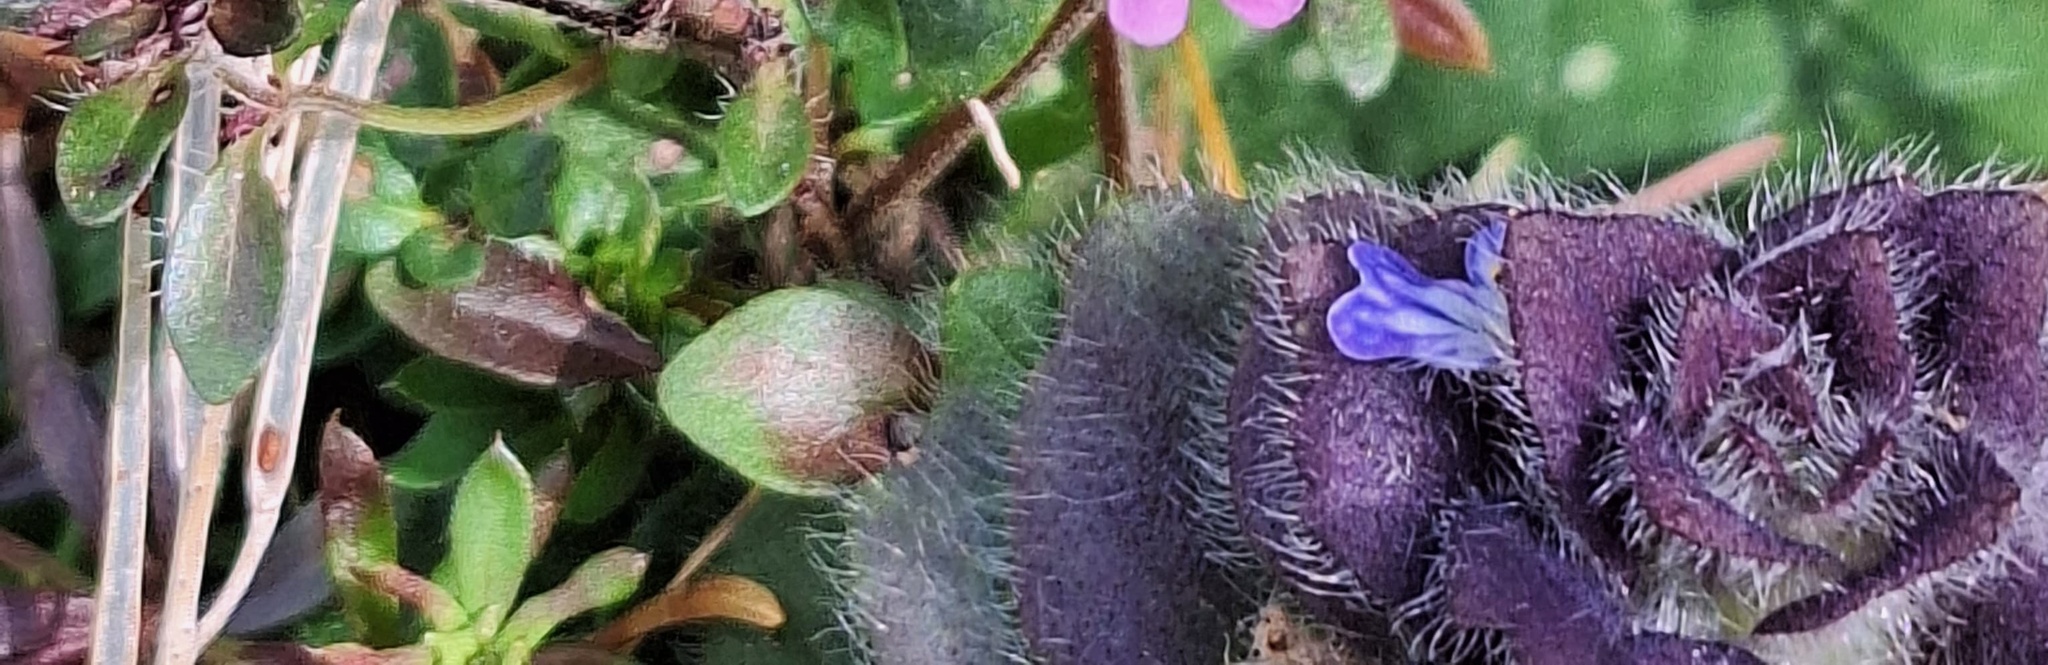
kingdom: Plantae
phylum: Tracheophyta
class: Magnoliopsida
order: Lamiales
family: Lamiaceae
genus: Ajuga
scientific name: Ajuga pyramidalis
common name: Pyramid bugle
